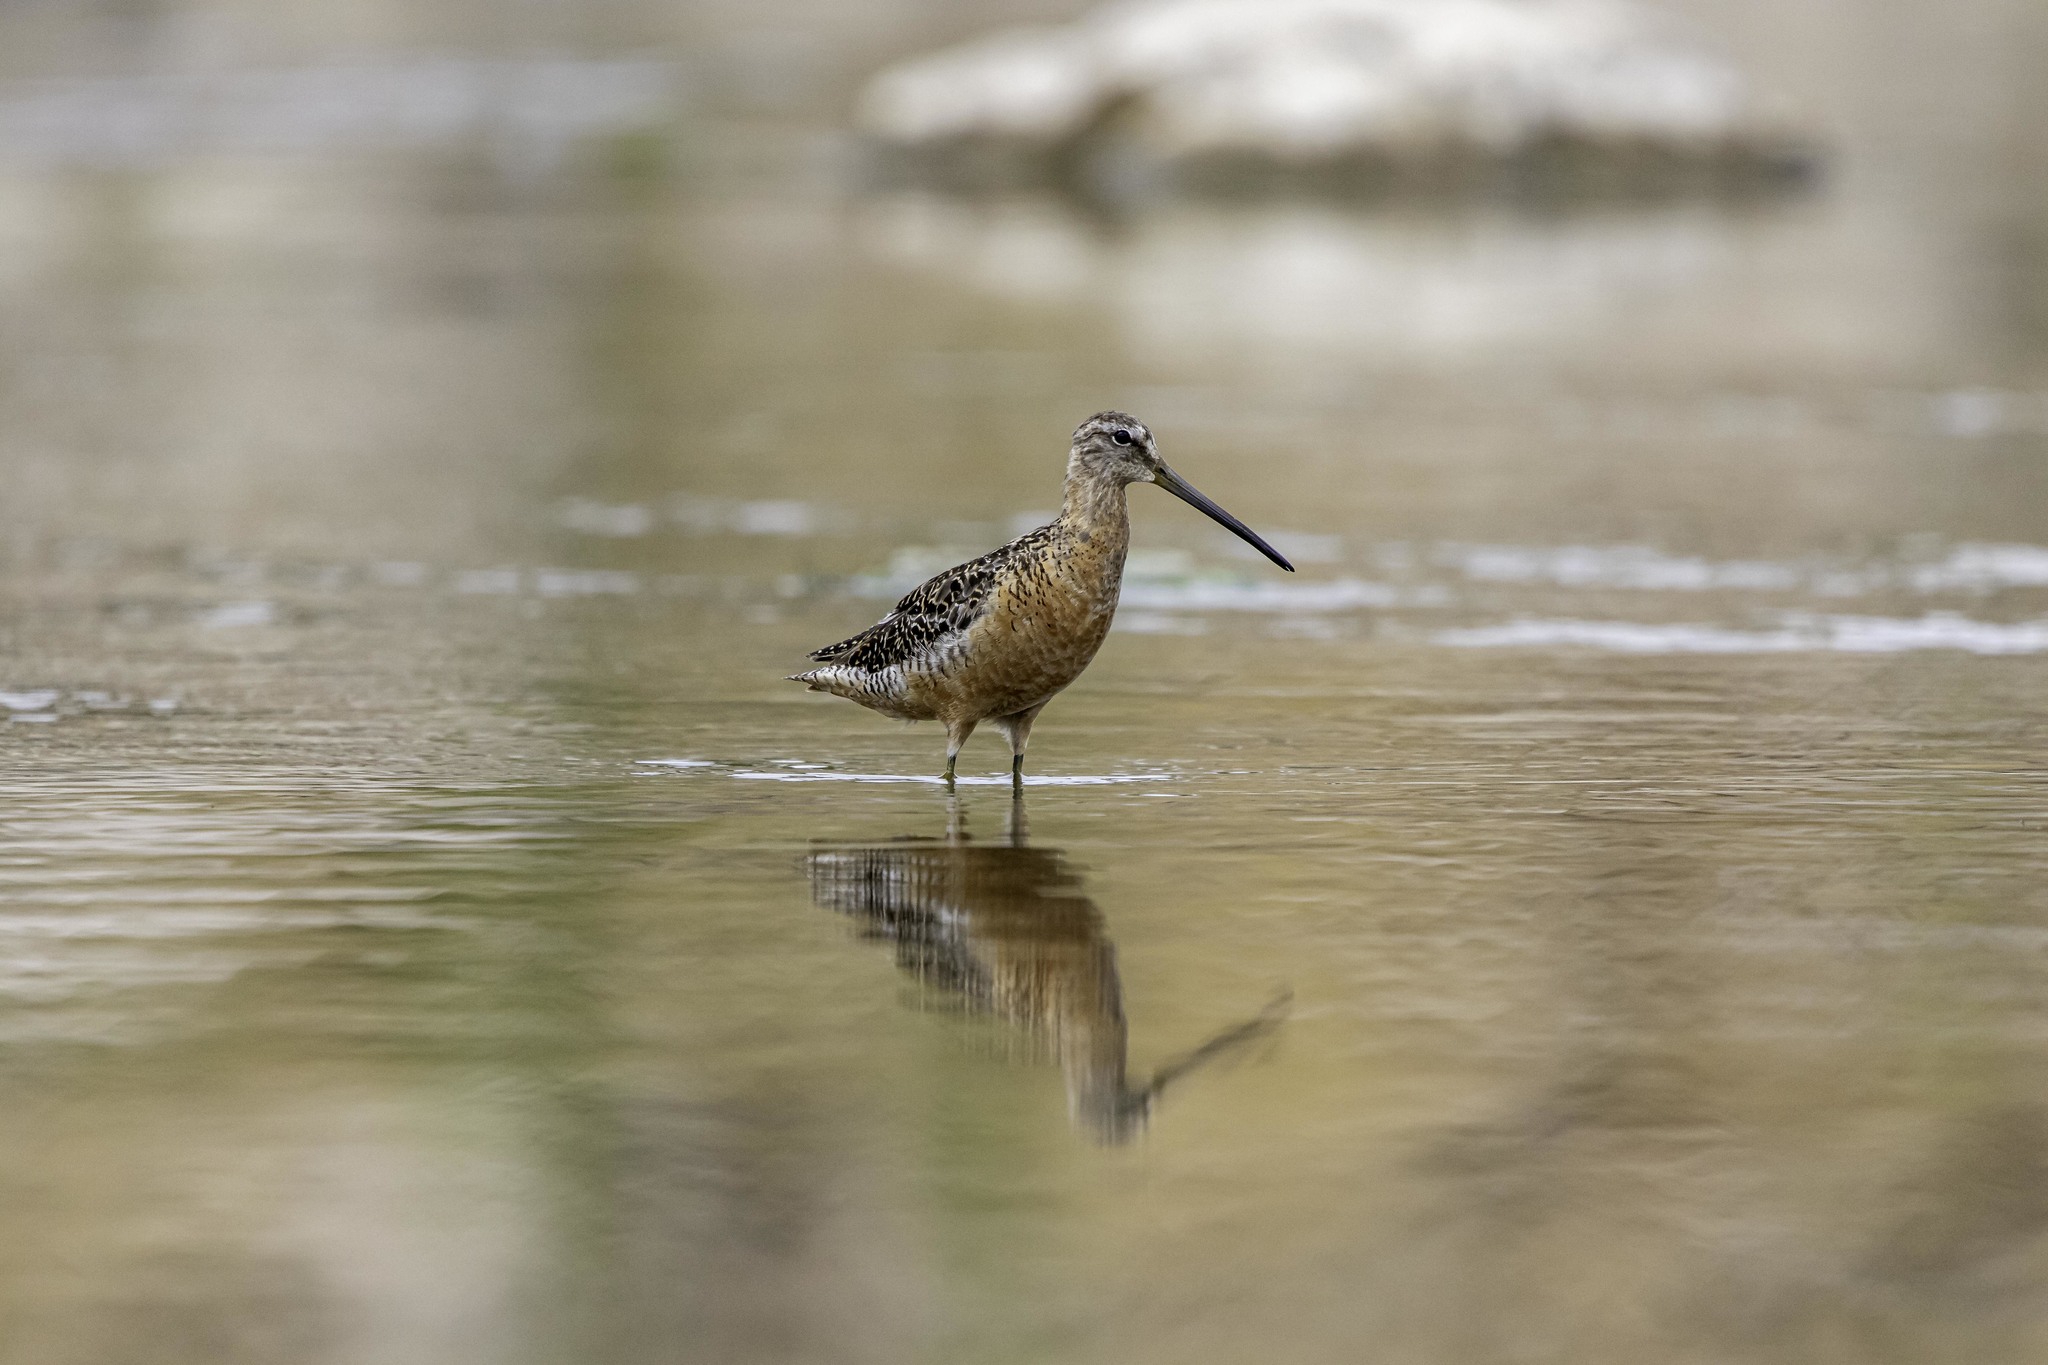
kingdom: Animalia
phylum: Chordata
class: Aves
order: Charadriiformes
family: Scolopacidae
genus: Limnodromus
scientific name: Limnodromus scolopaceus
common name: Long-billed dowitcher
